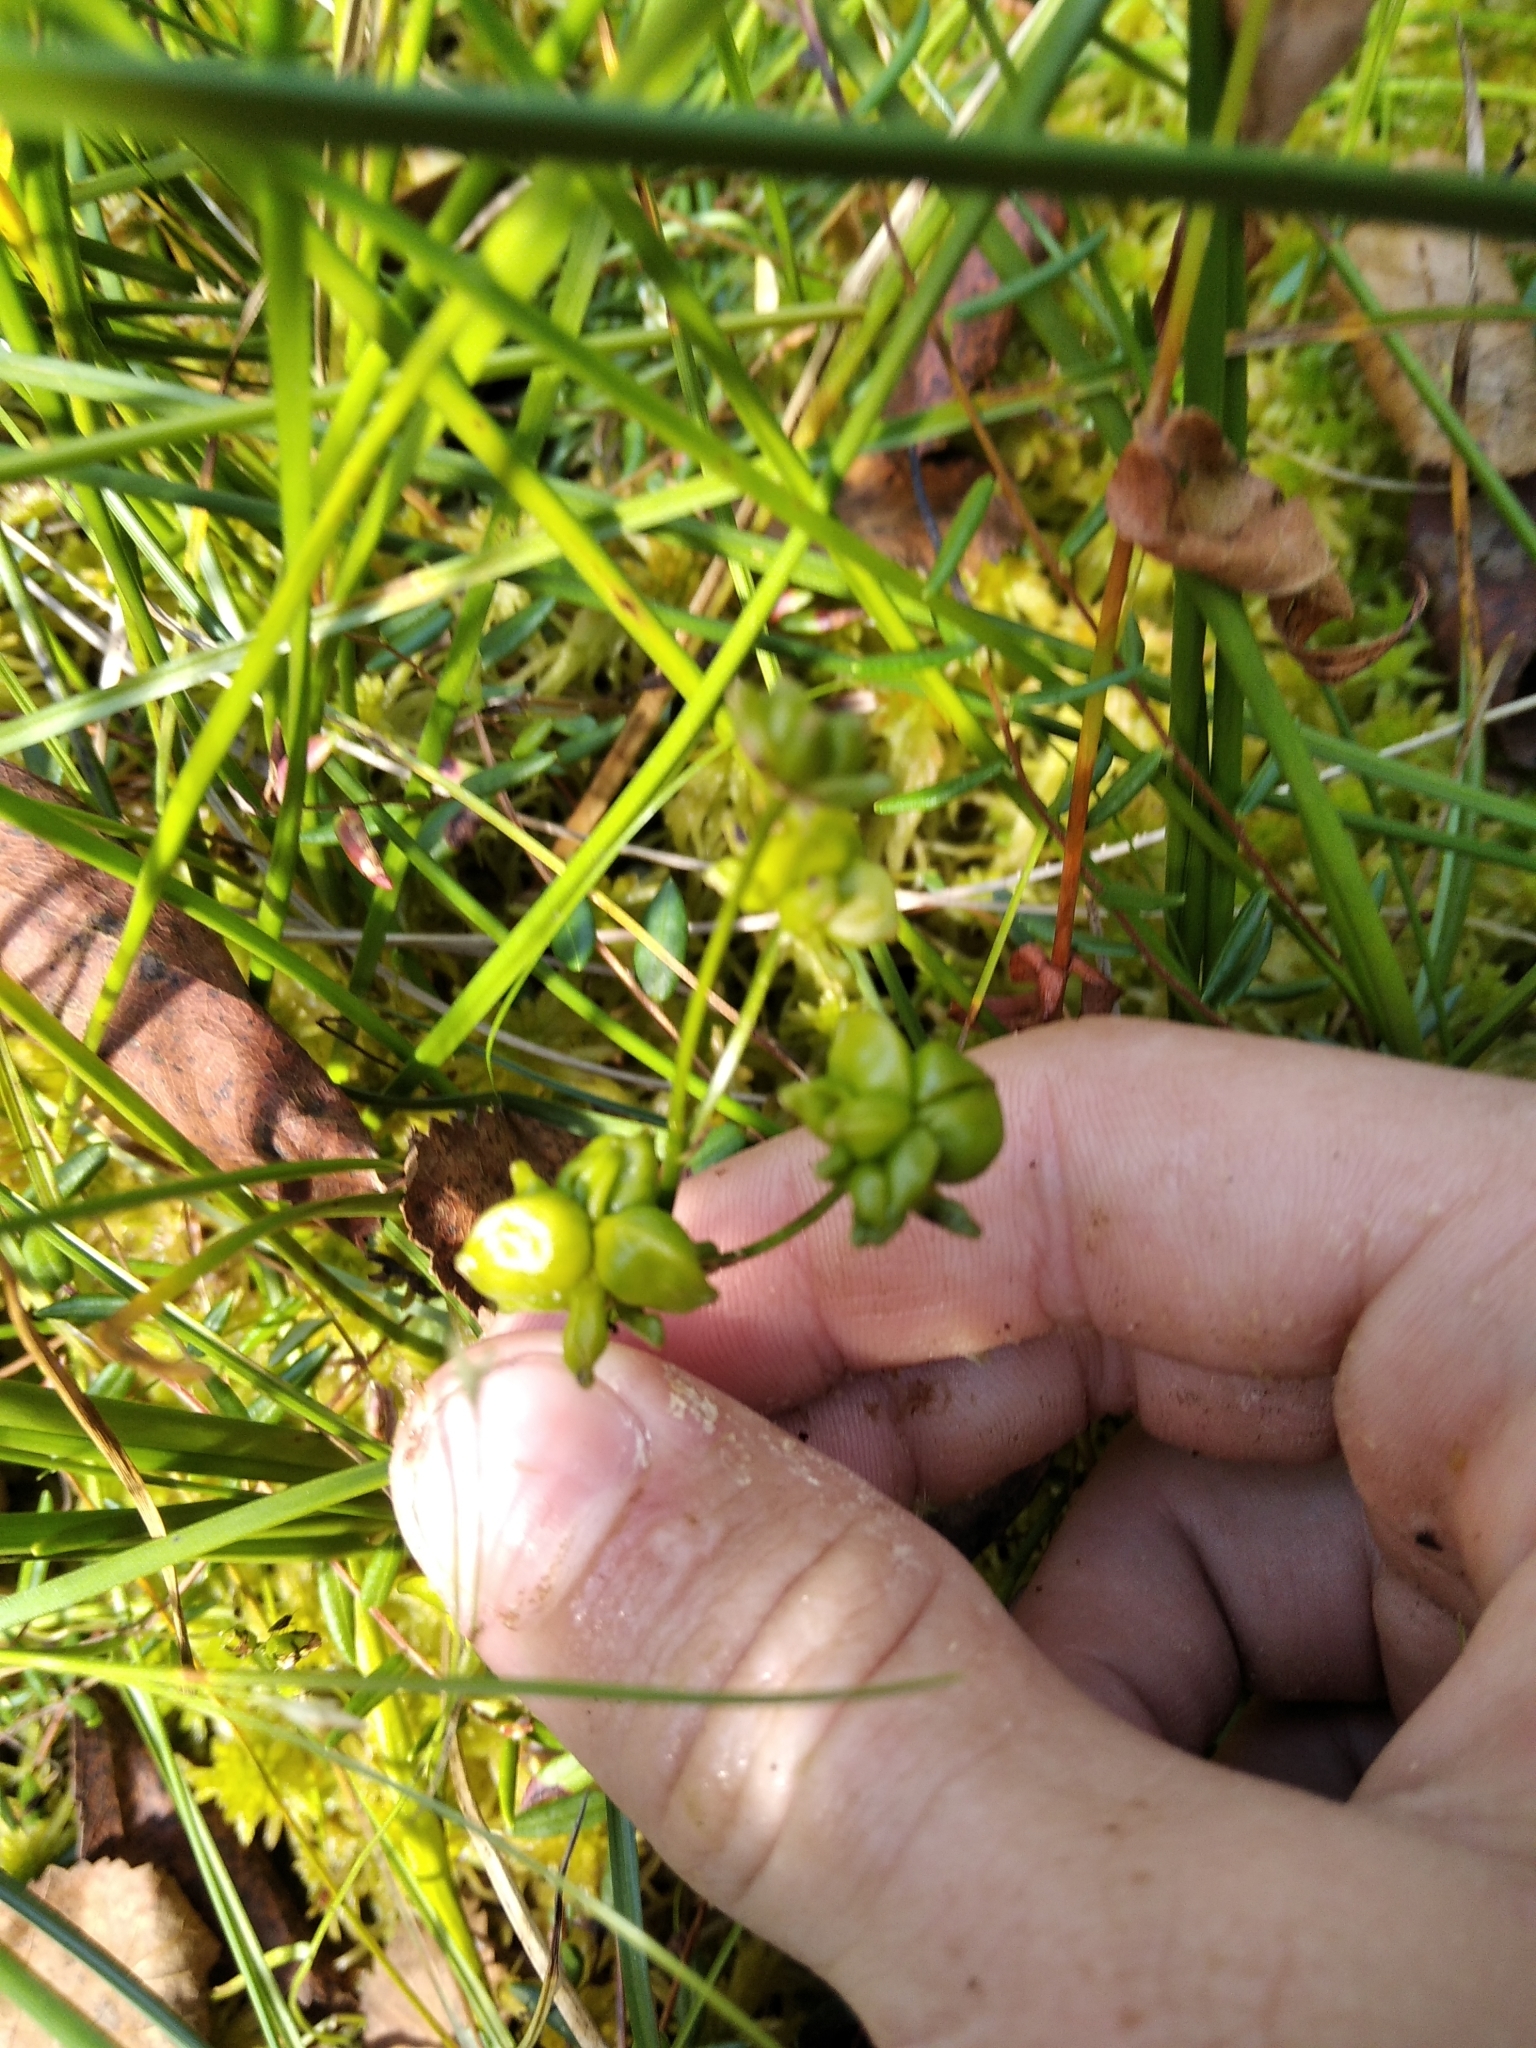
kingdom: Plantae
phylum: Tracheophyta
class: Liliopsida
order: Alismatales
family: Scheuchzeriaceae
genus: Scheuchzeria
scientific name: Scheuchzeria palustris
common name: Rannoch-rush
